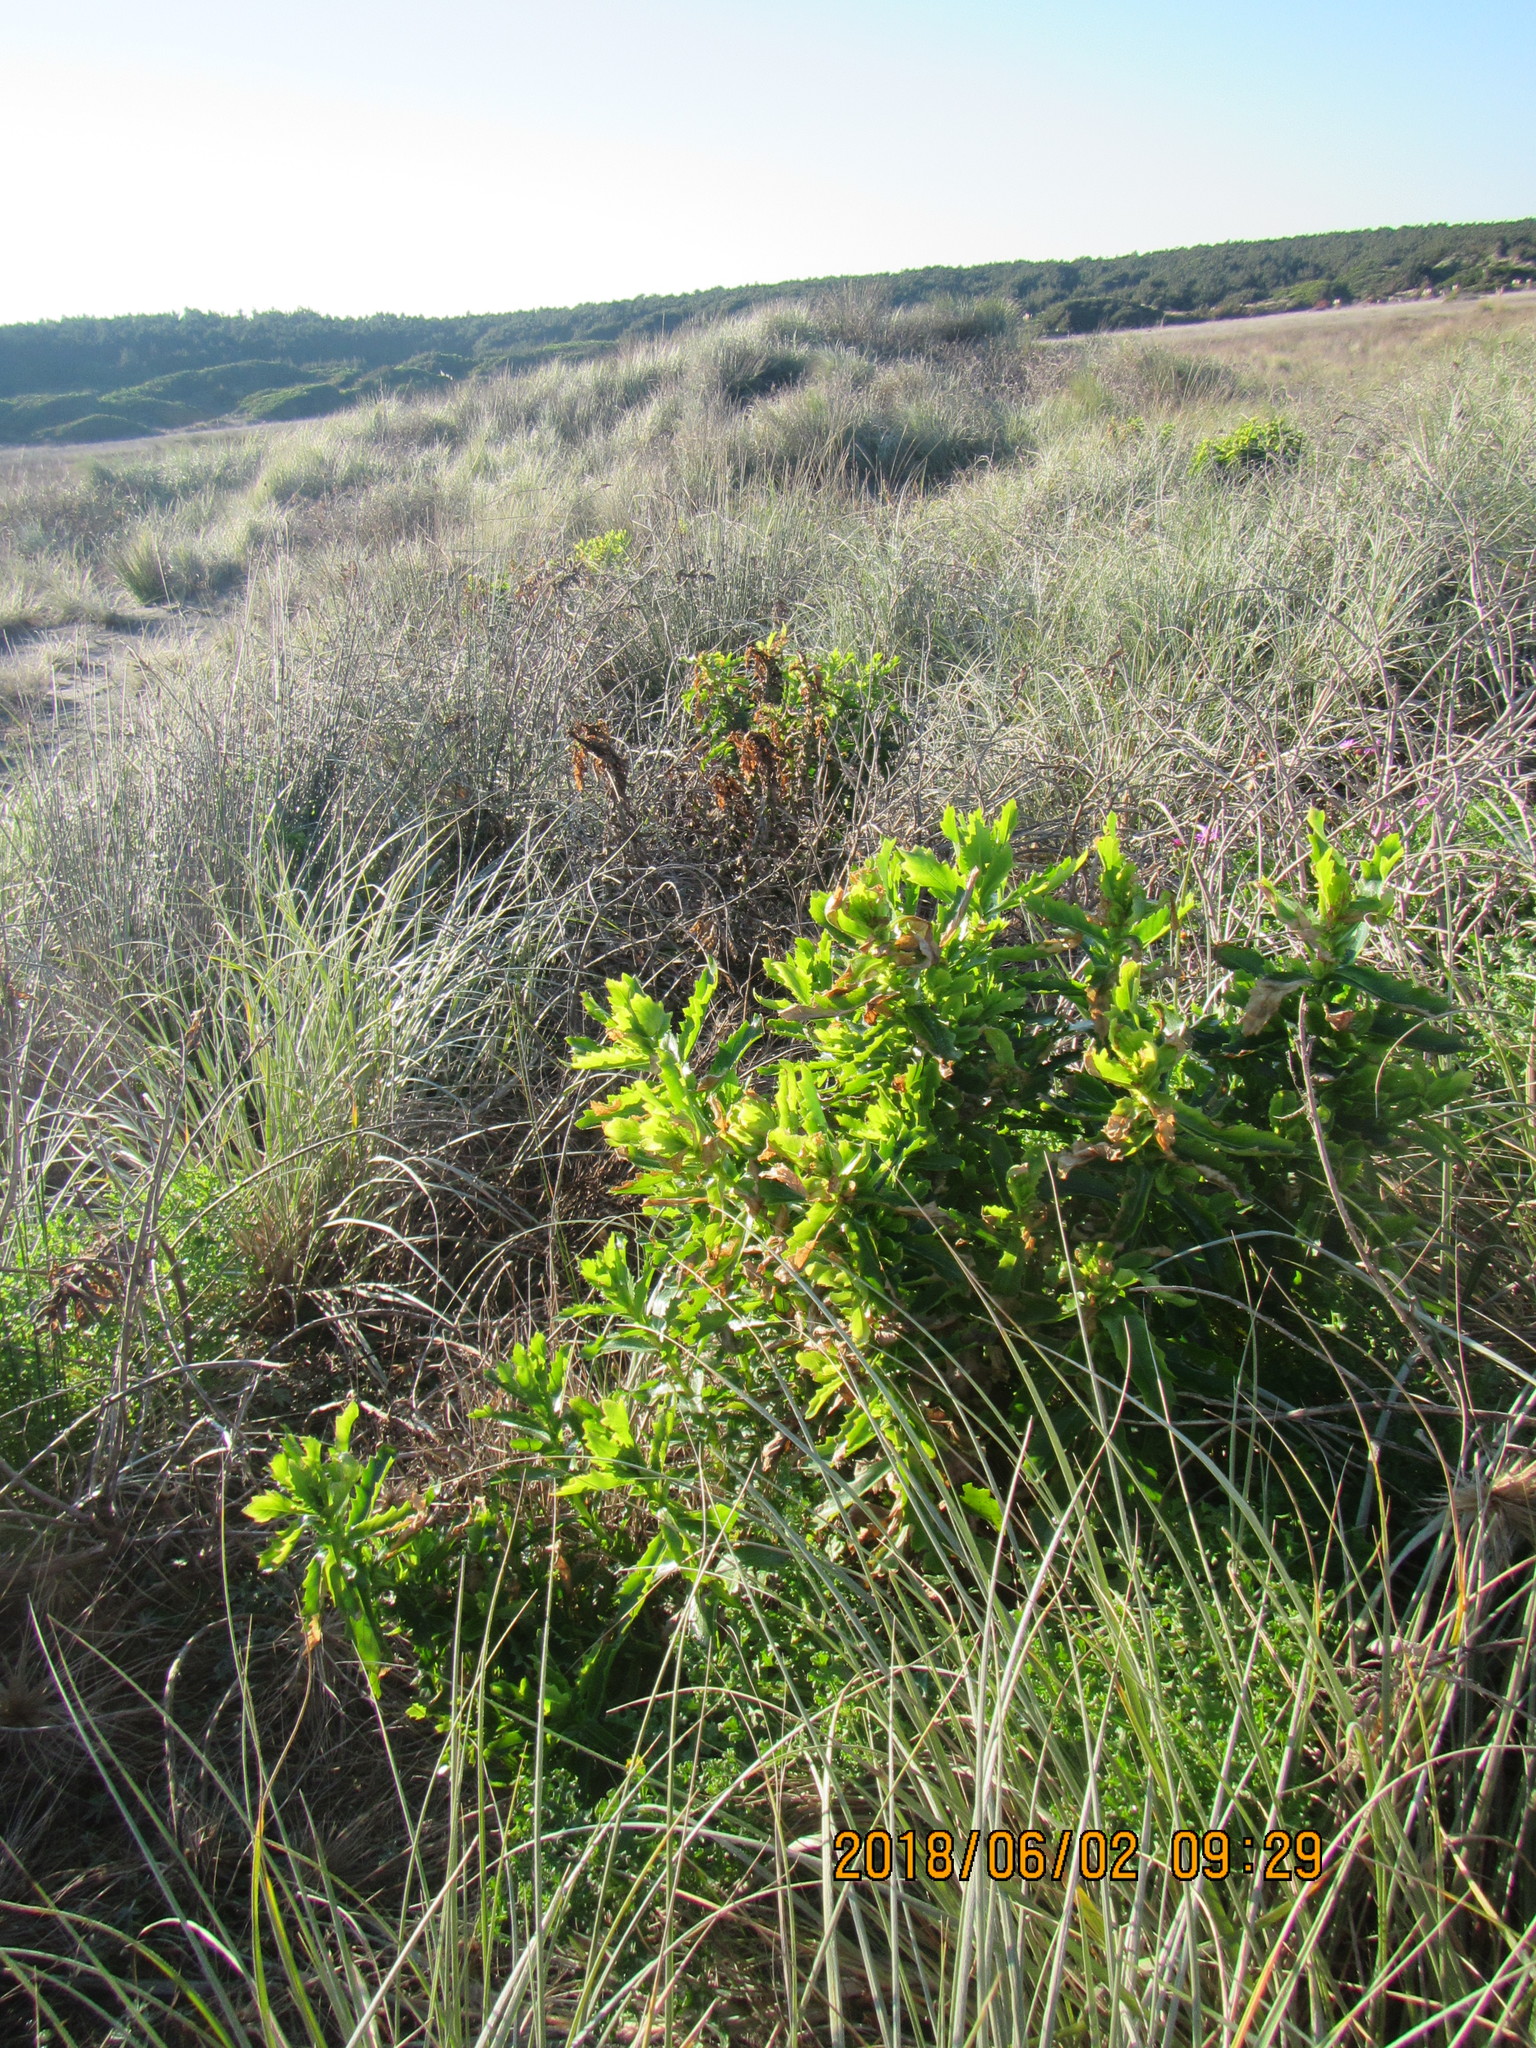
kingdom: Plantae
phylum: Tracheophyta
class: Magnoliopsida
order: Asterales
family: Asteraceae
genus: Senecio
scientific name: Senecio glastifolius
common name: Woad-leaved ragwort
